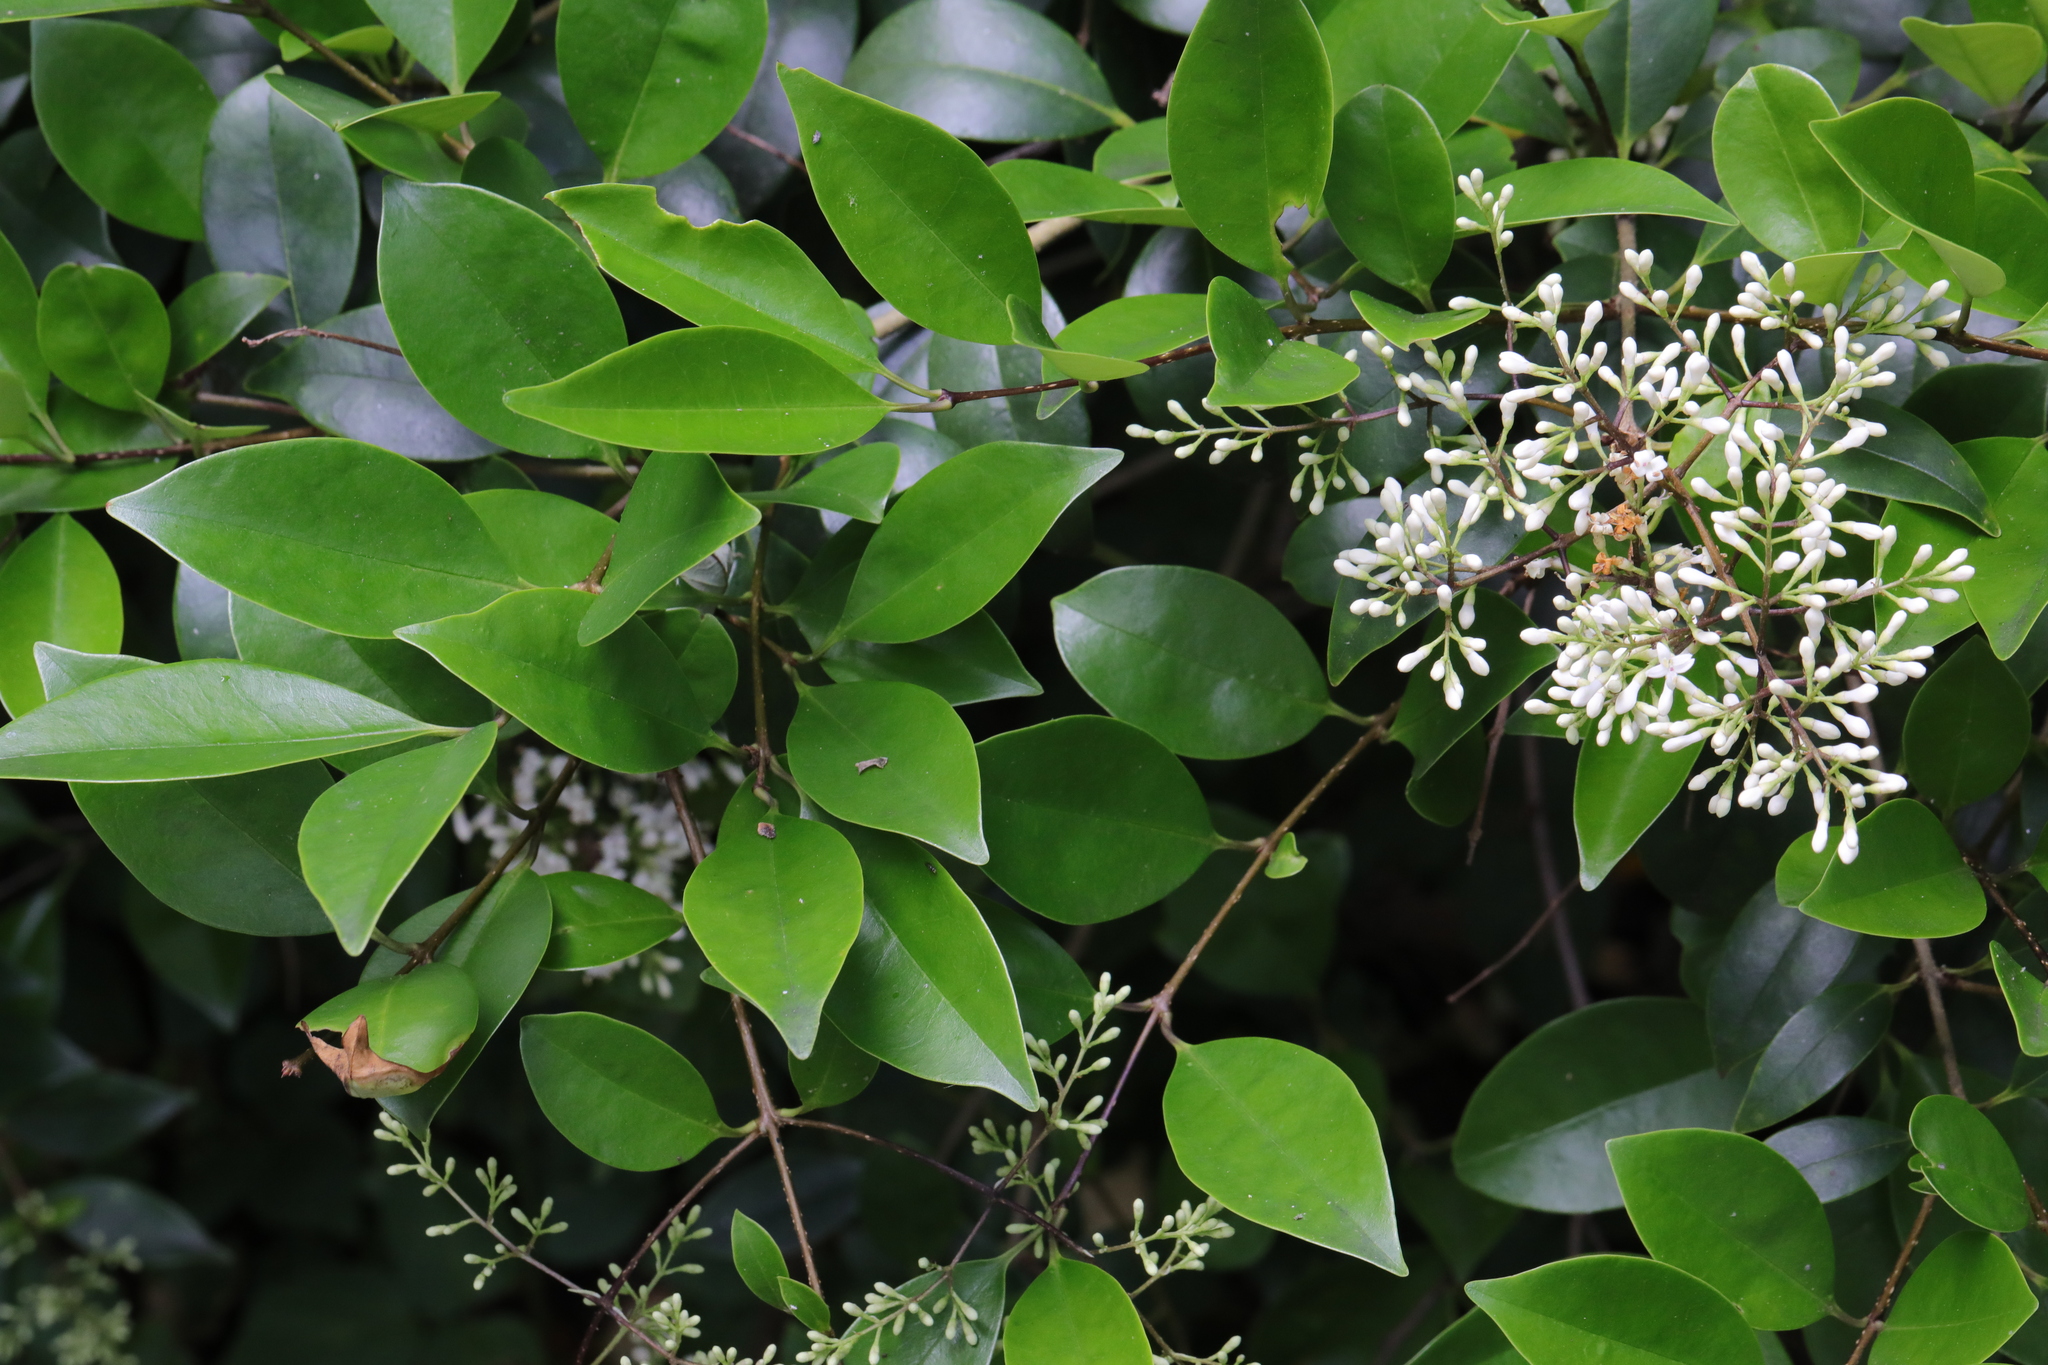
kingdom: Plantae
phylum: Tracheophyta
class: Magnoliopsida
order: Lamiales
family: Oleaceae
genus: Ligustrum
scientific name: Ligustrum ovalifolium
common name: California privet
